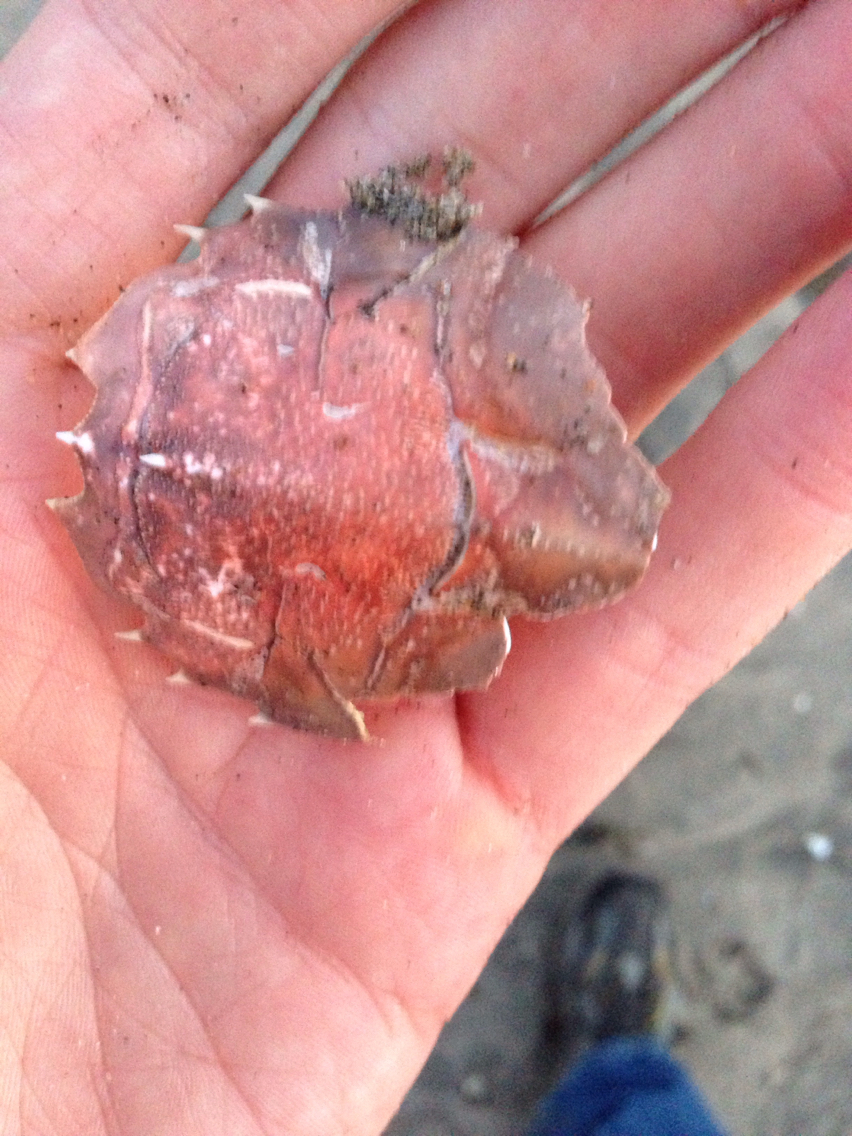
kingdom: Animalia
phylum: Arthropoda
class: Malacostraca
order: Decapoda
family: Blepharipodidae
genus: Blepharipoda
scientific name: Blepharipoda occidentalis
